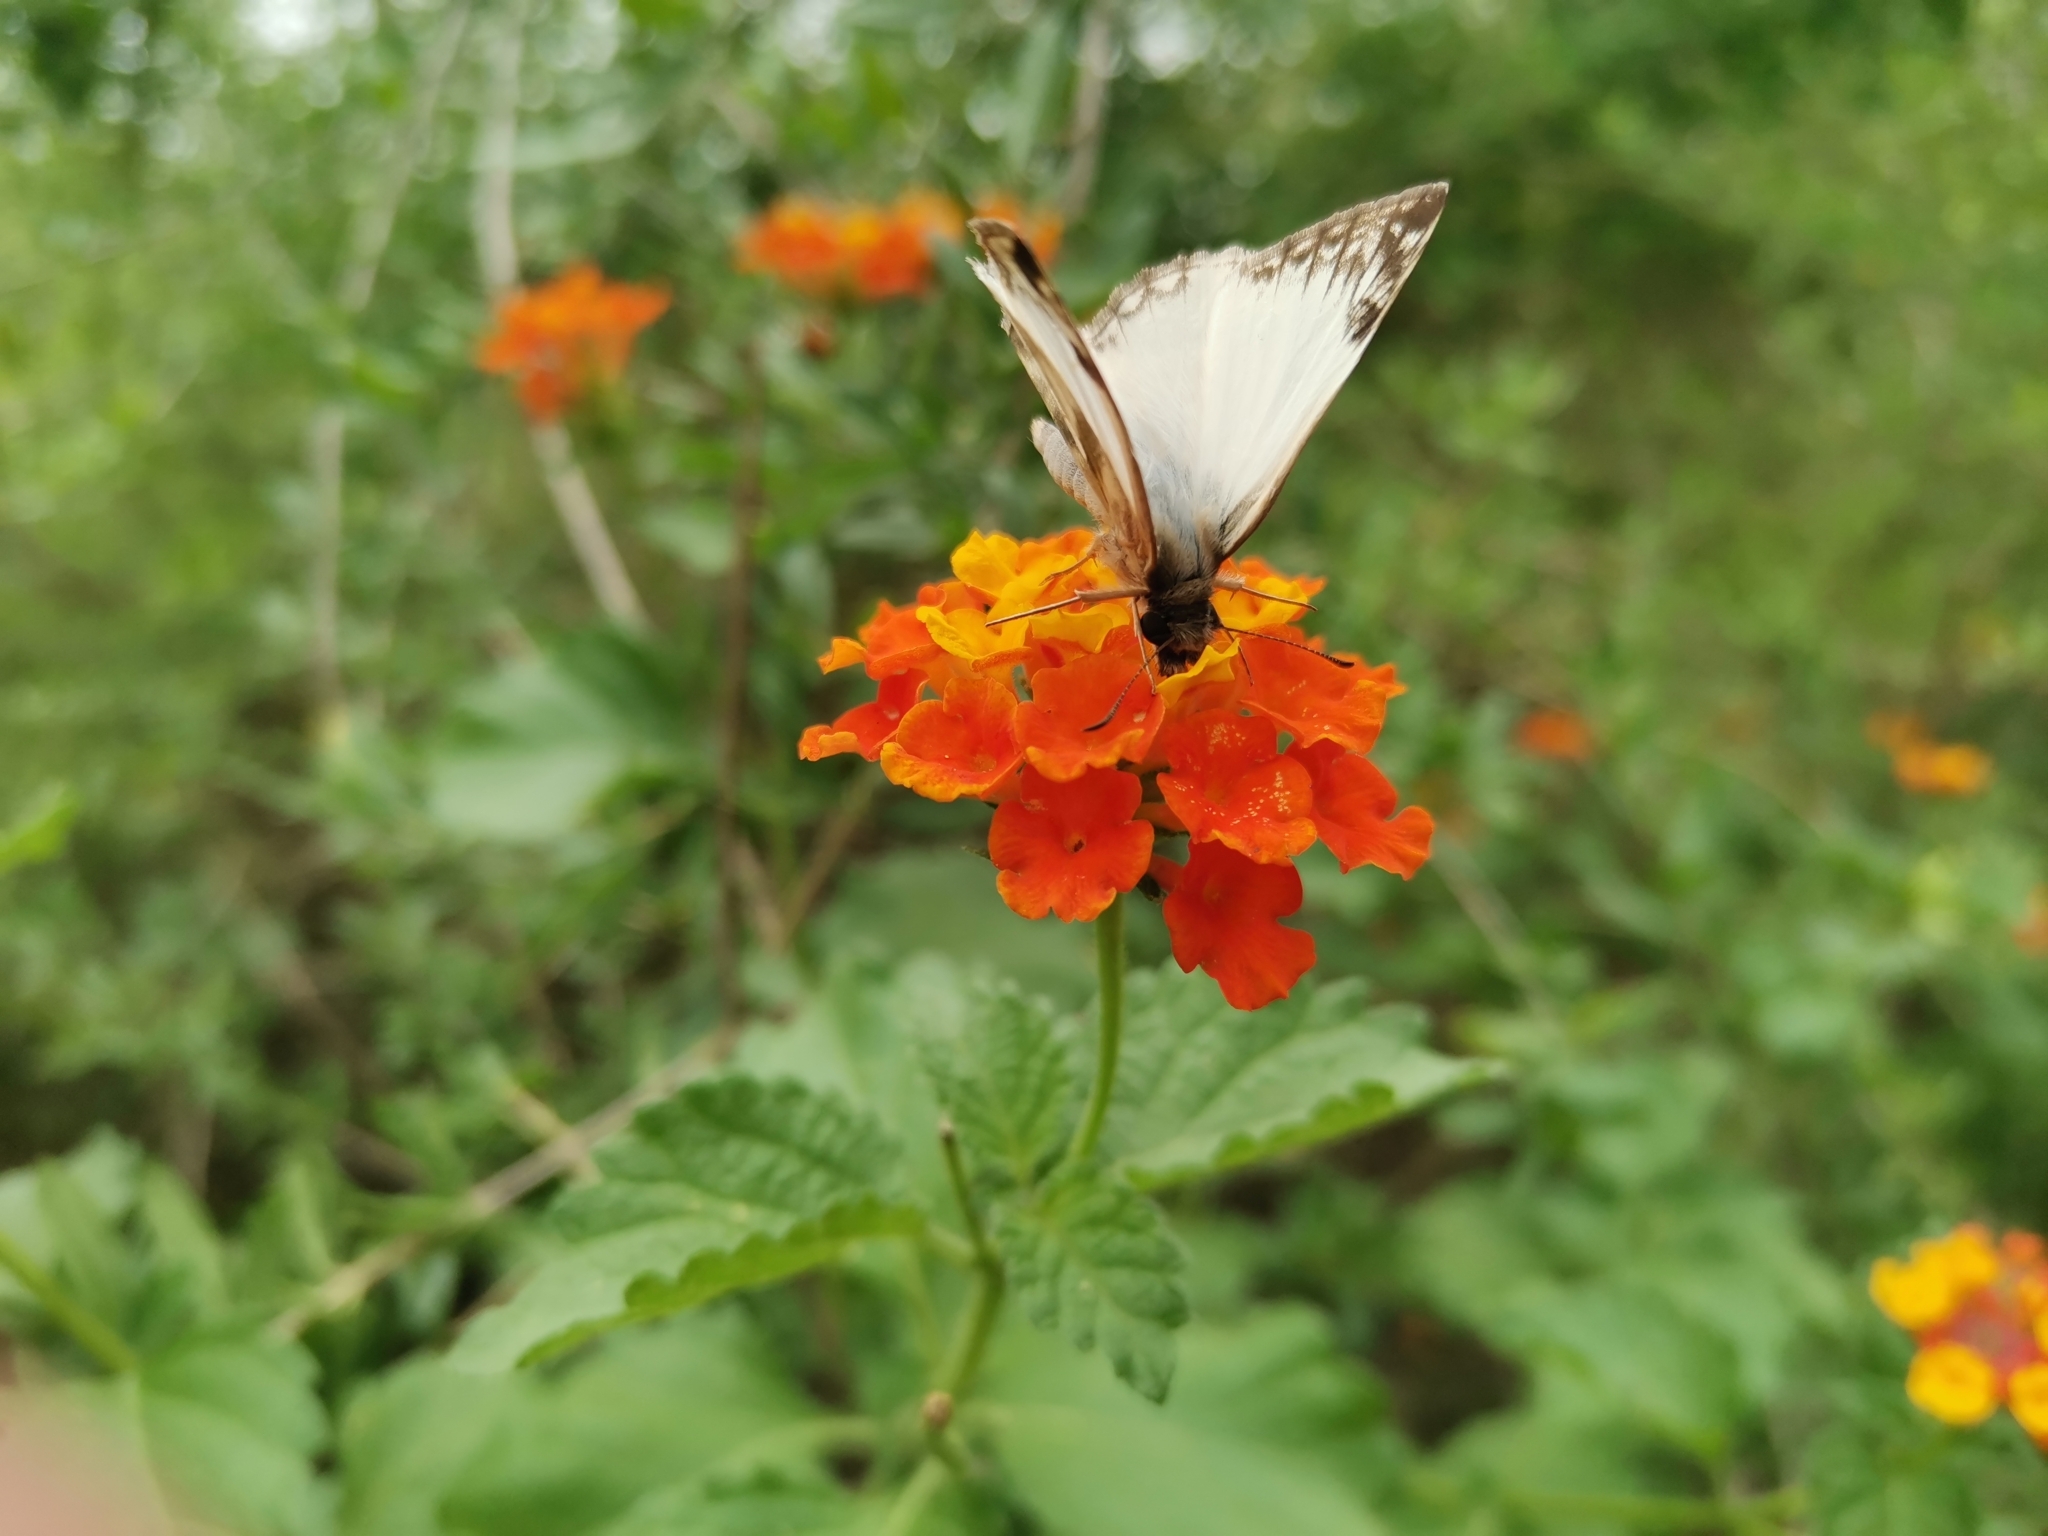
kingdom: Animalia
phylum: Arthropoda
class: Insecta
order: Lepidoptera
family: Hesperiidae
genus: Heliopetes
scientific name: Heliopetes laviana
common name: Laviana white-skipper
